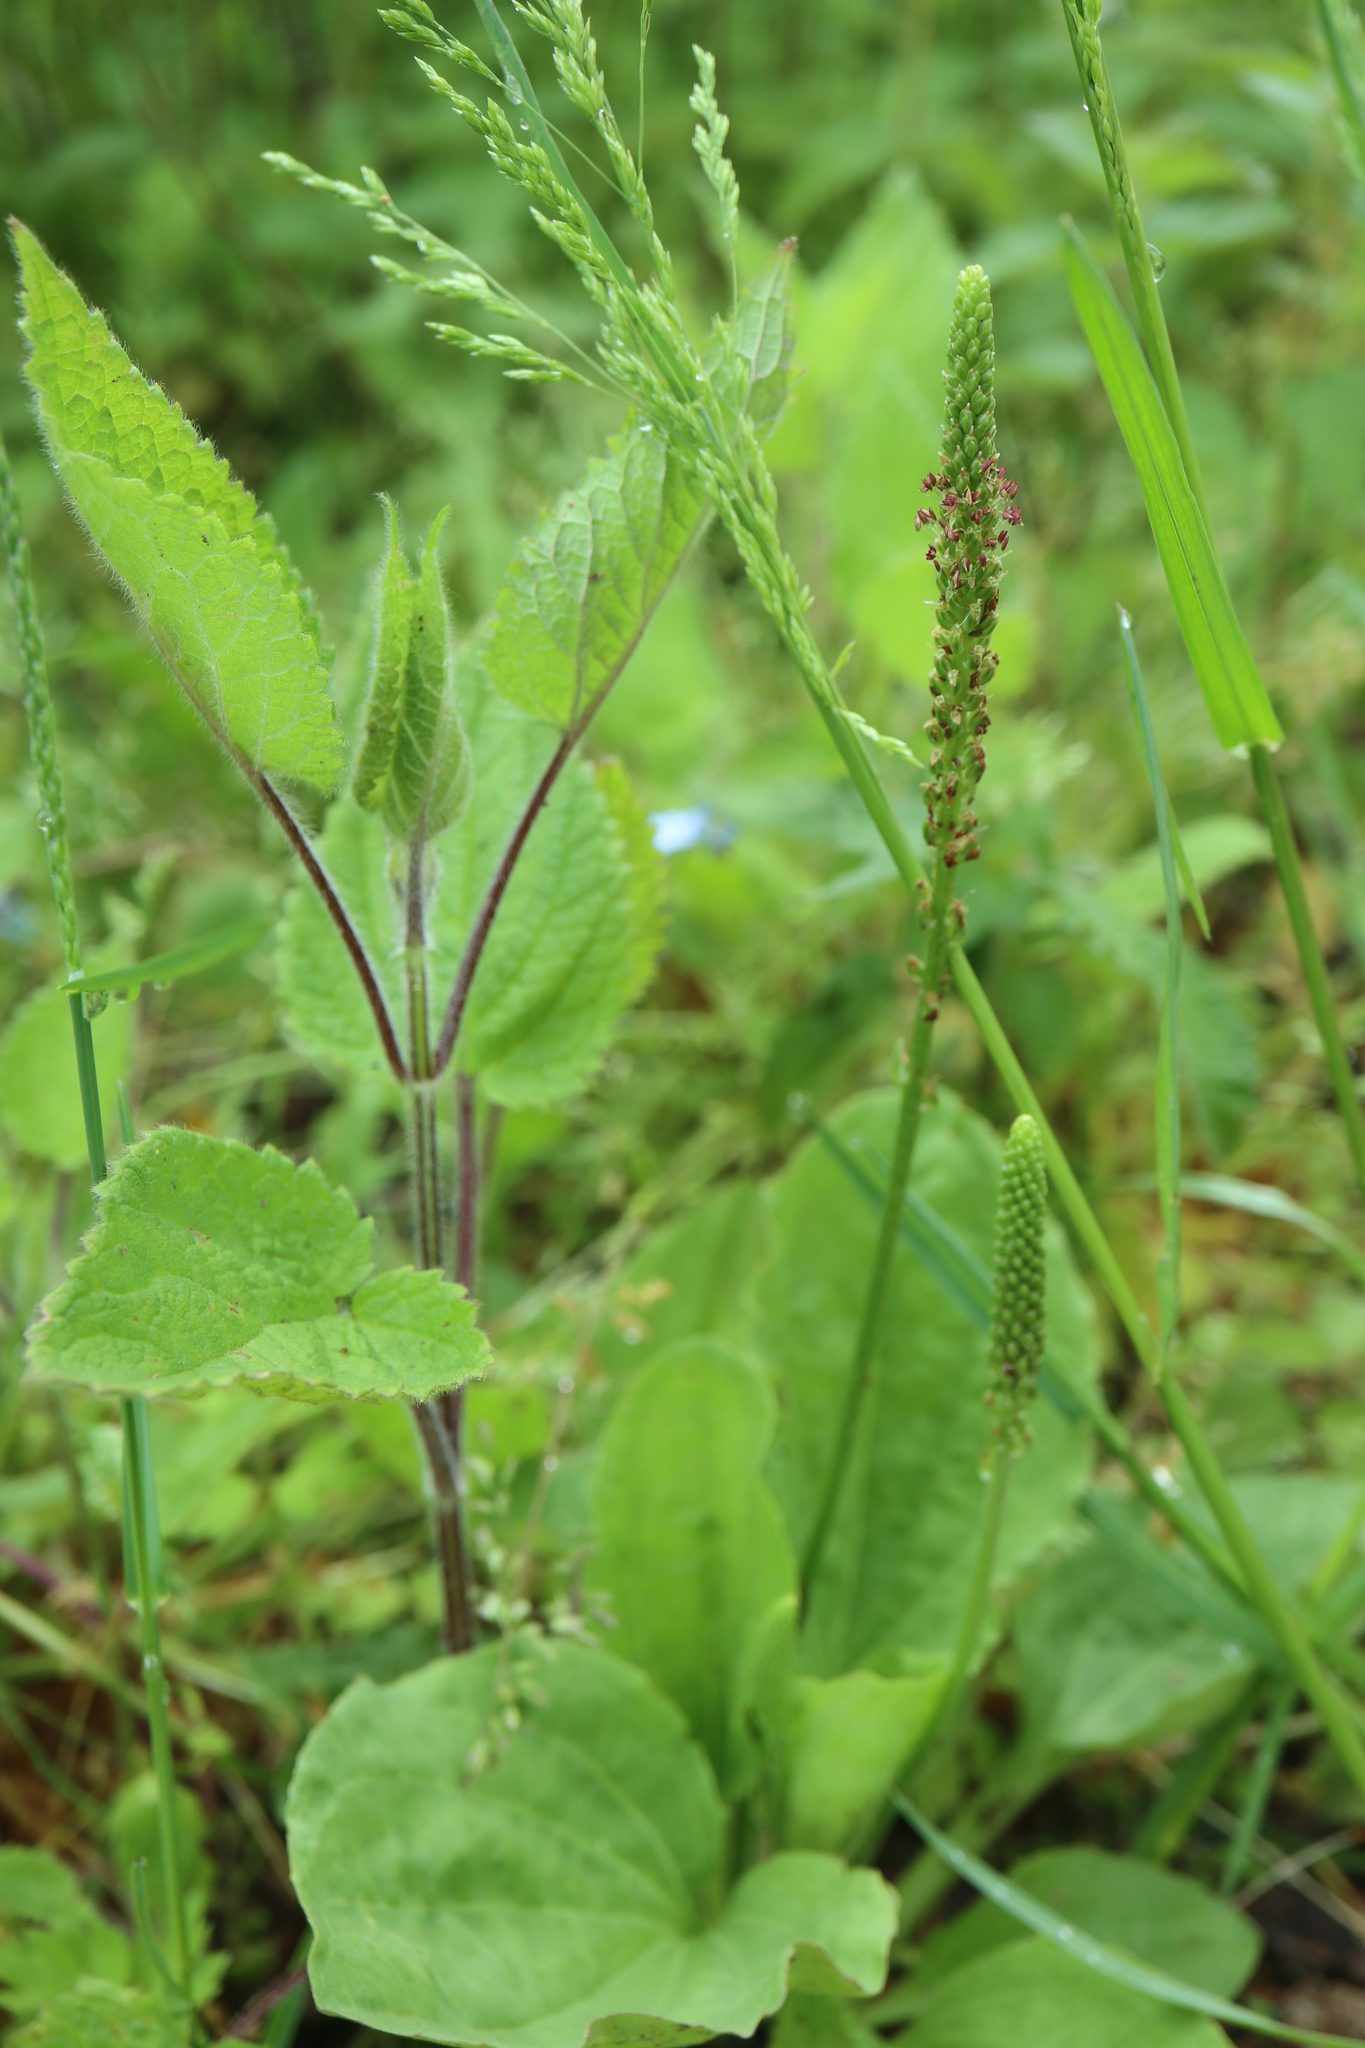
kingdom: Plantae
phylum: Tracheophyta
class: Magnoliopsida
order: Lamiales
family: Plantaginaceae
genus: Plantago
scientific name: Plantago major
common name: Common plantain
